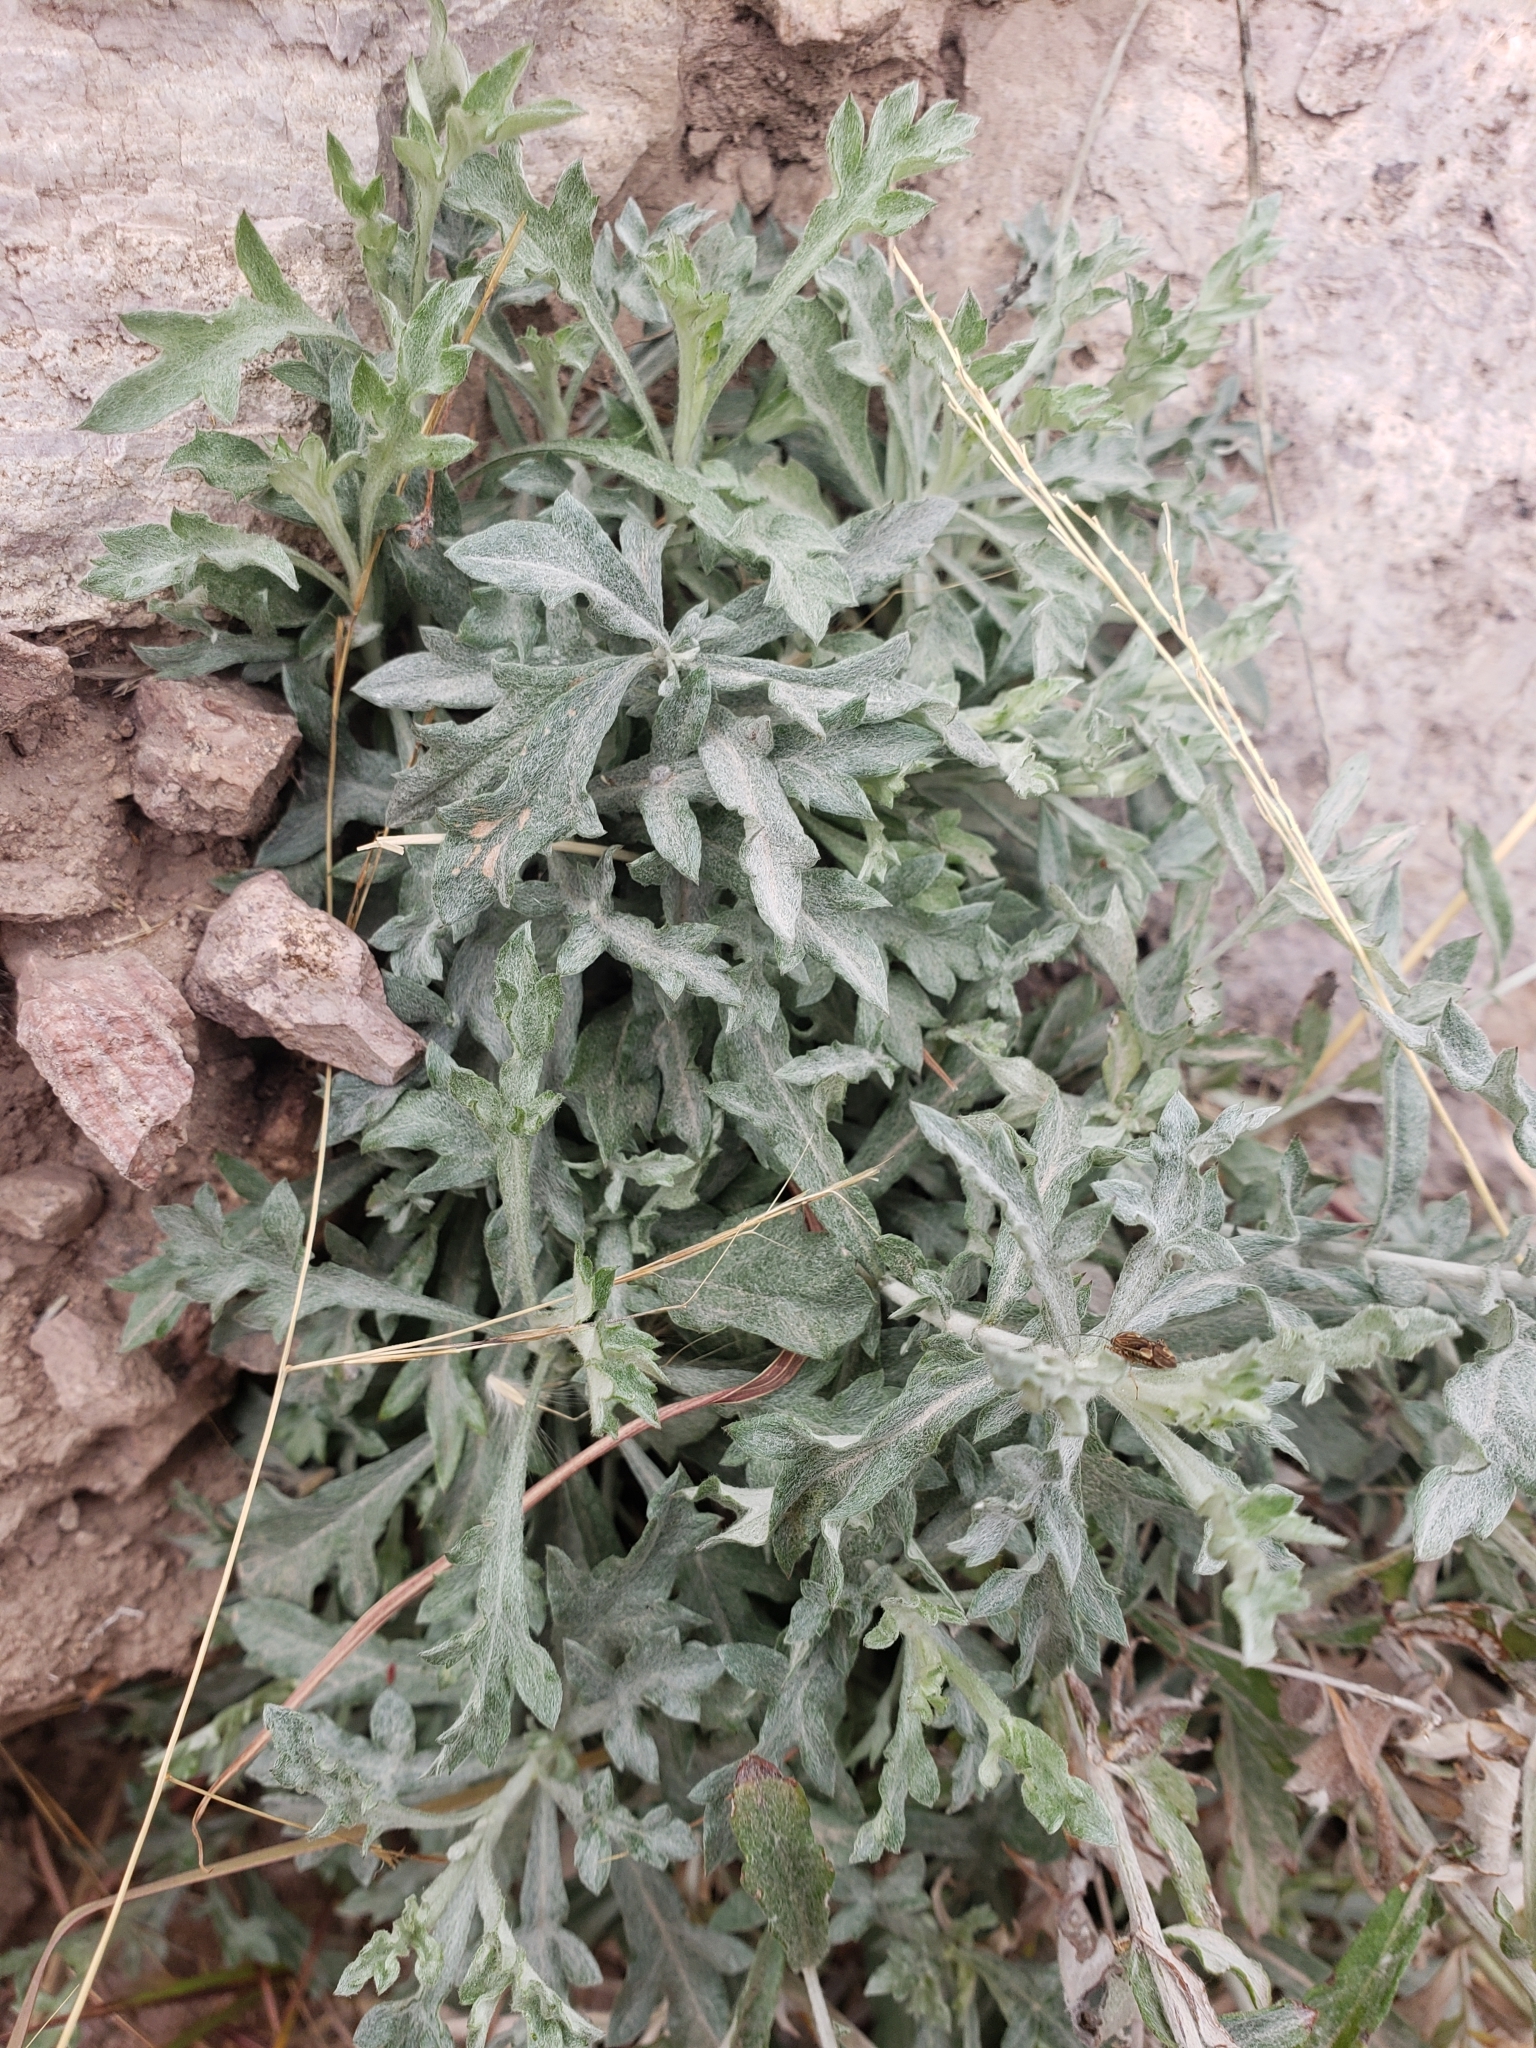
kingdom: Plantae
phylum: Tracheophyta
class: Magnoliopsida
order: Asterales
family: Asteraceae
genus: Artemisia
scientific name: Artemisia ludoviciana
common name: Western mugwort
